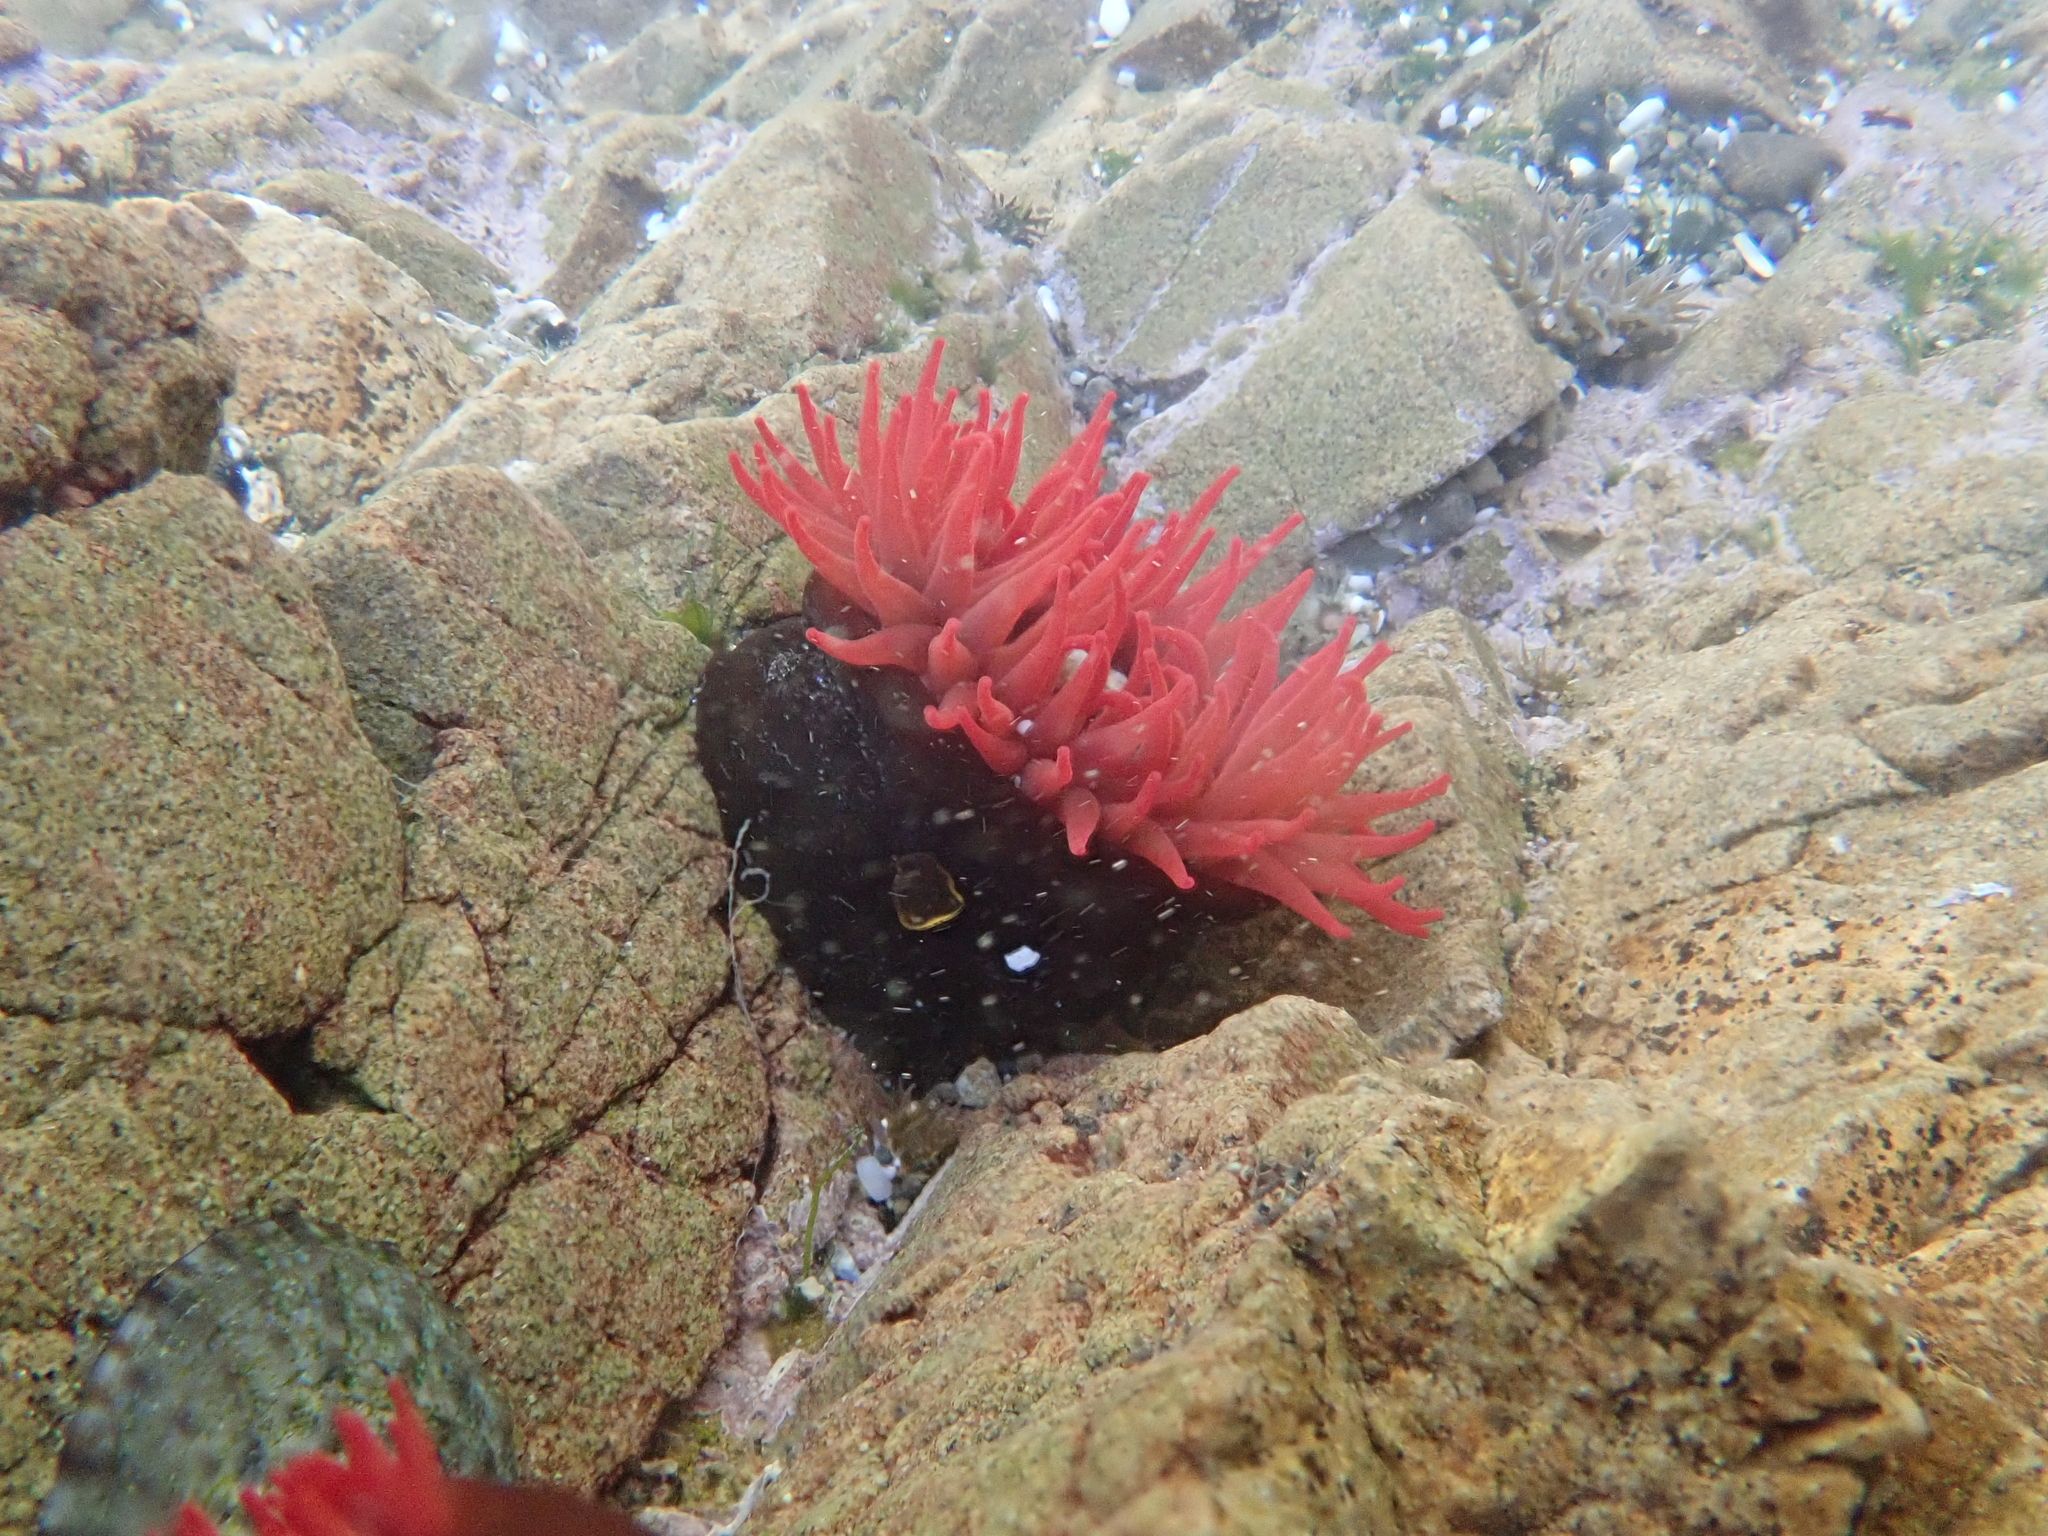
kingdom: Animalia
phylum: Cnidaria
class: Anthozoa
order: Actiniaria
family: Actiniidae
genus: Actinia
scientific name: Actinia tenebrosa
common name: Waratah anemone
